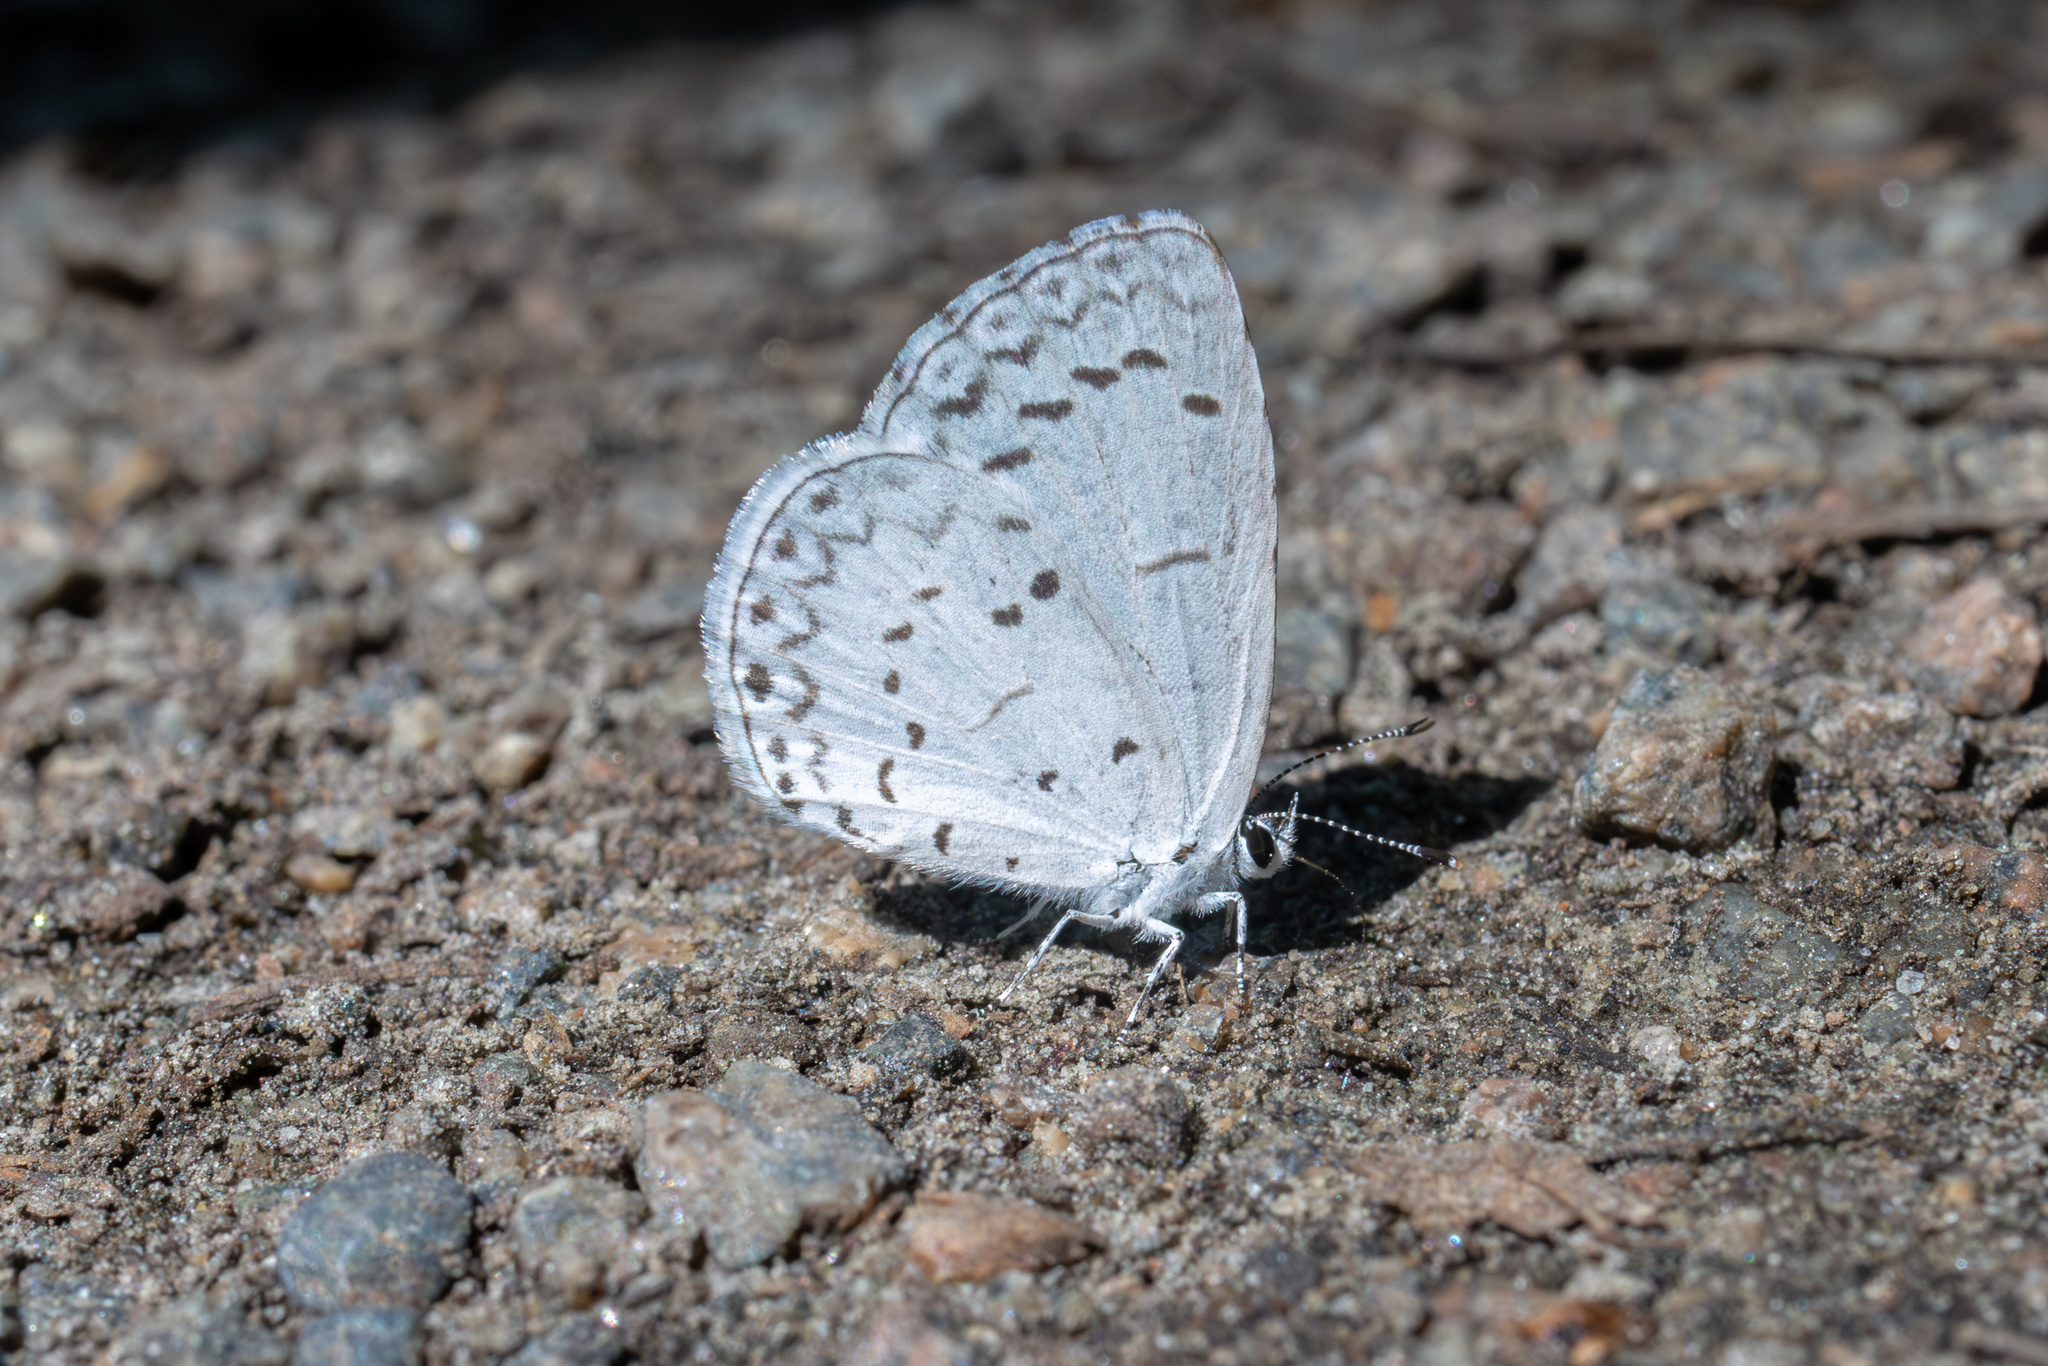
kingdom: Animalia
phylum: Arthropoda
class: Insecta
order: Lepidoptera
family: Lycaenidae
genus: Cyaniris
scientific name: Cyaniris neglecta
